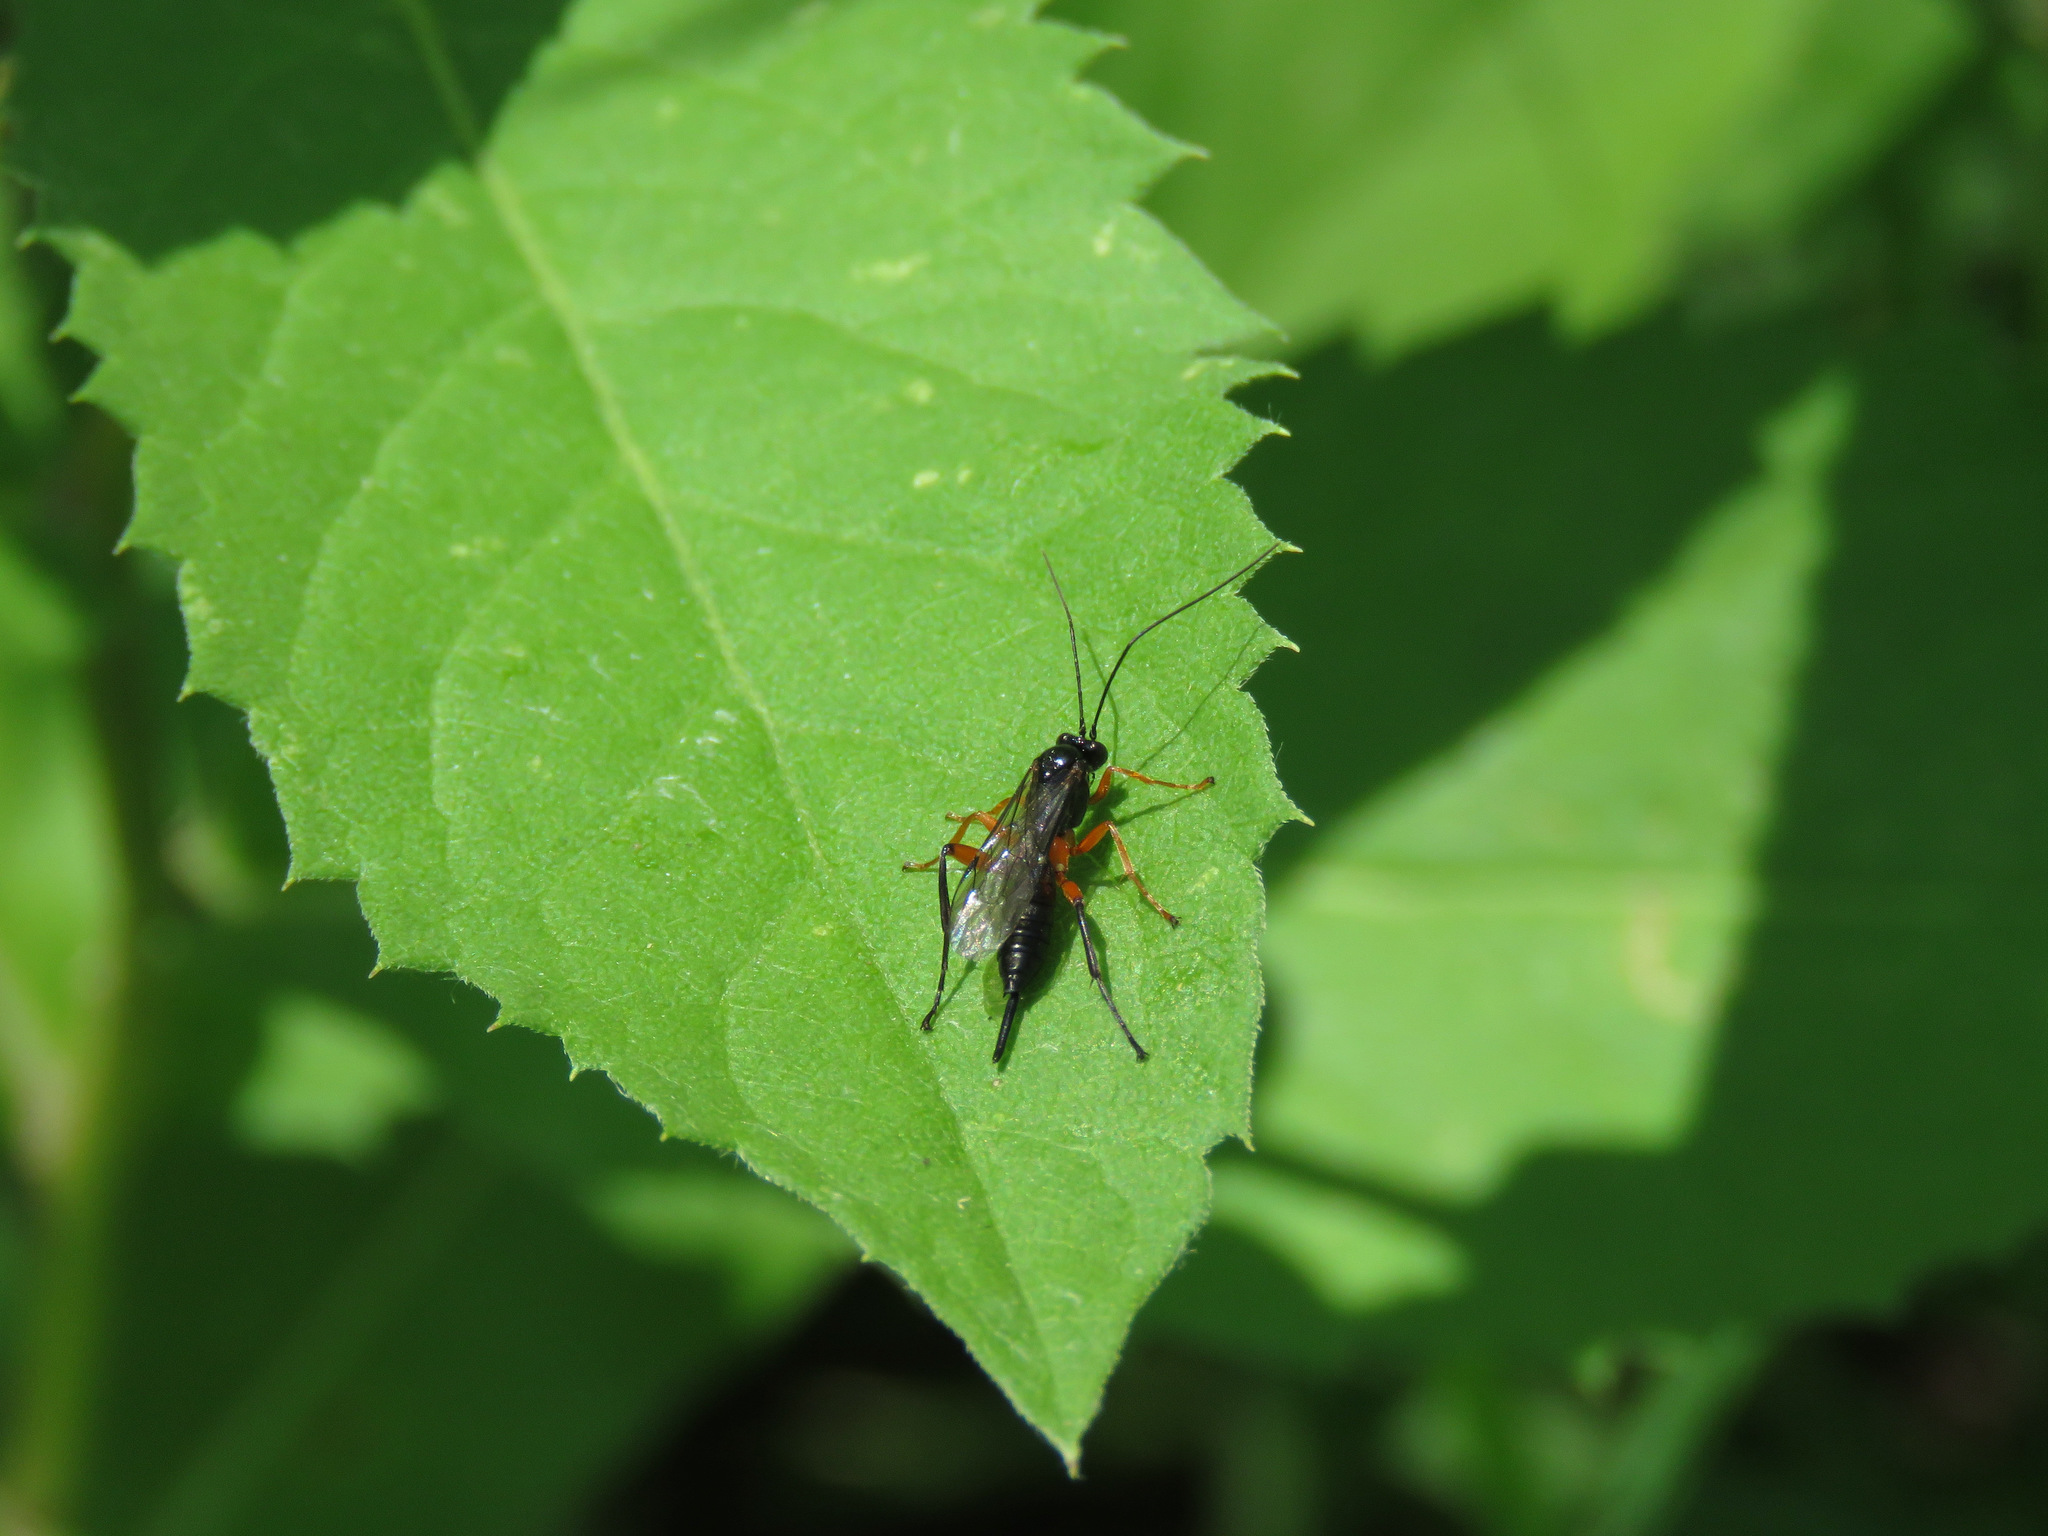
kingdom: Animalia
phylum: Arthropoda
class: Insecta
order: Hymenoptera
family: Ichneumonidae
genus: Pimpla
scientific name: Pimpla pedalis
